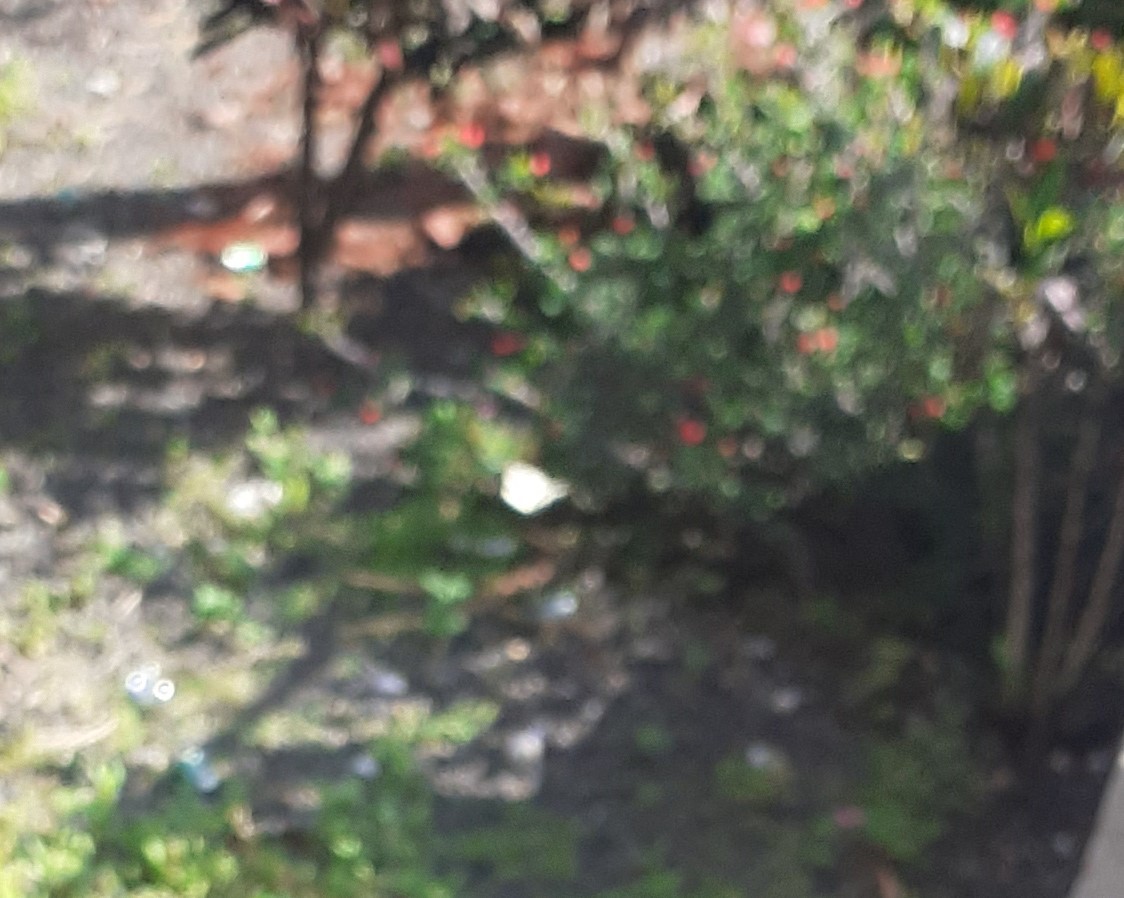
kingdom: Animalia
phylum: Arthropoda
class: Insecta
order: Lepidoptera
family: Pieridae
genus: Pieris
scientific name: Pieris cheiranthi
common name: Canary islands large white
